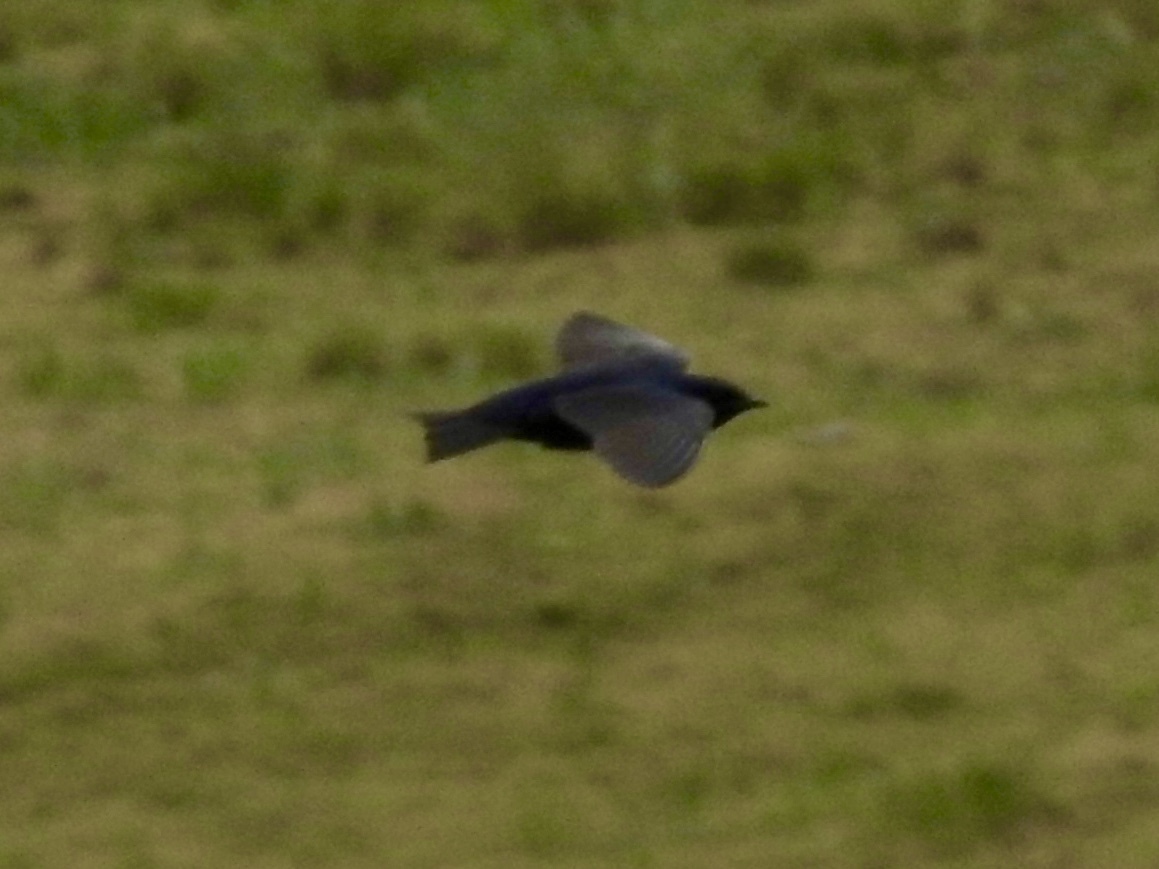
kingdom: Animalia
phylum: Chordata
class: Aves
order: Passeriformes
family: Hirundinidae
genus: Progne
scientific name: Progne subis
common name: Purple martin
